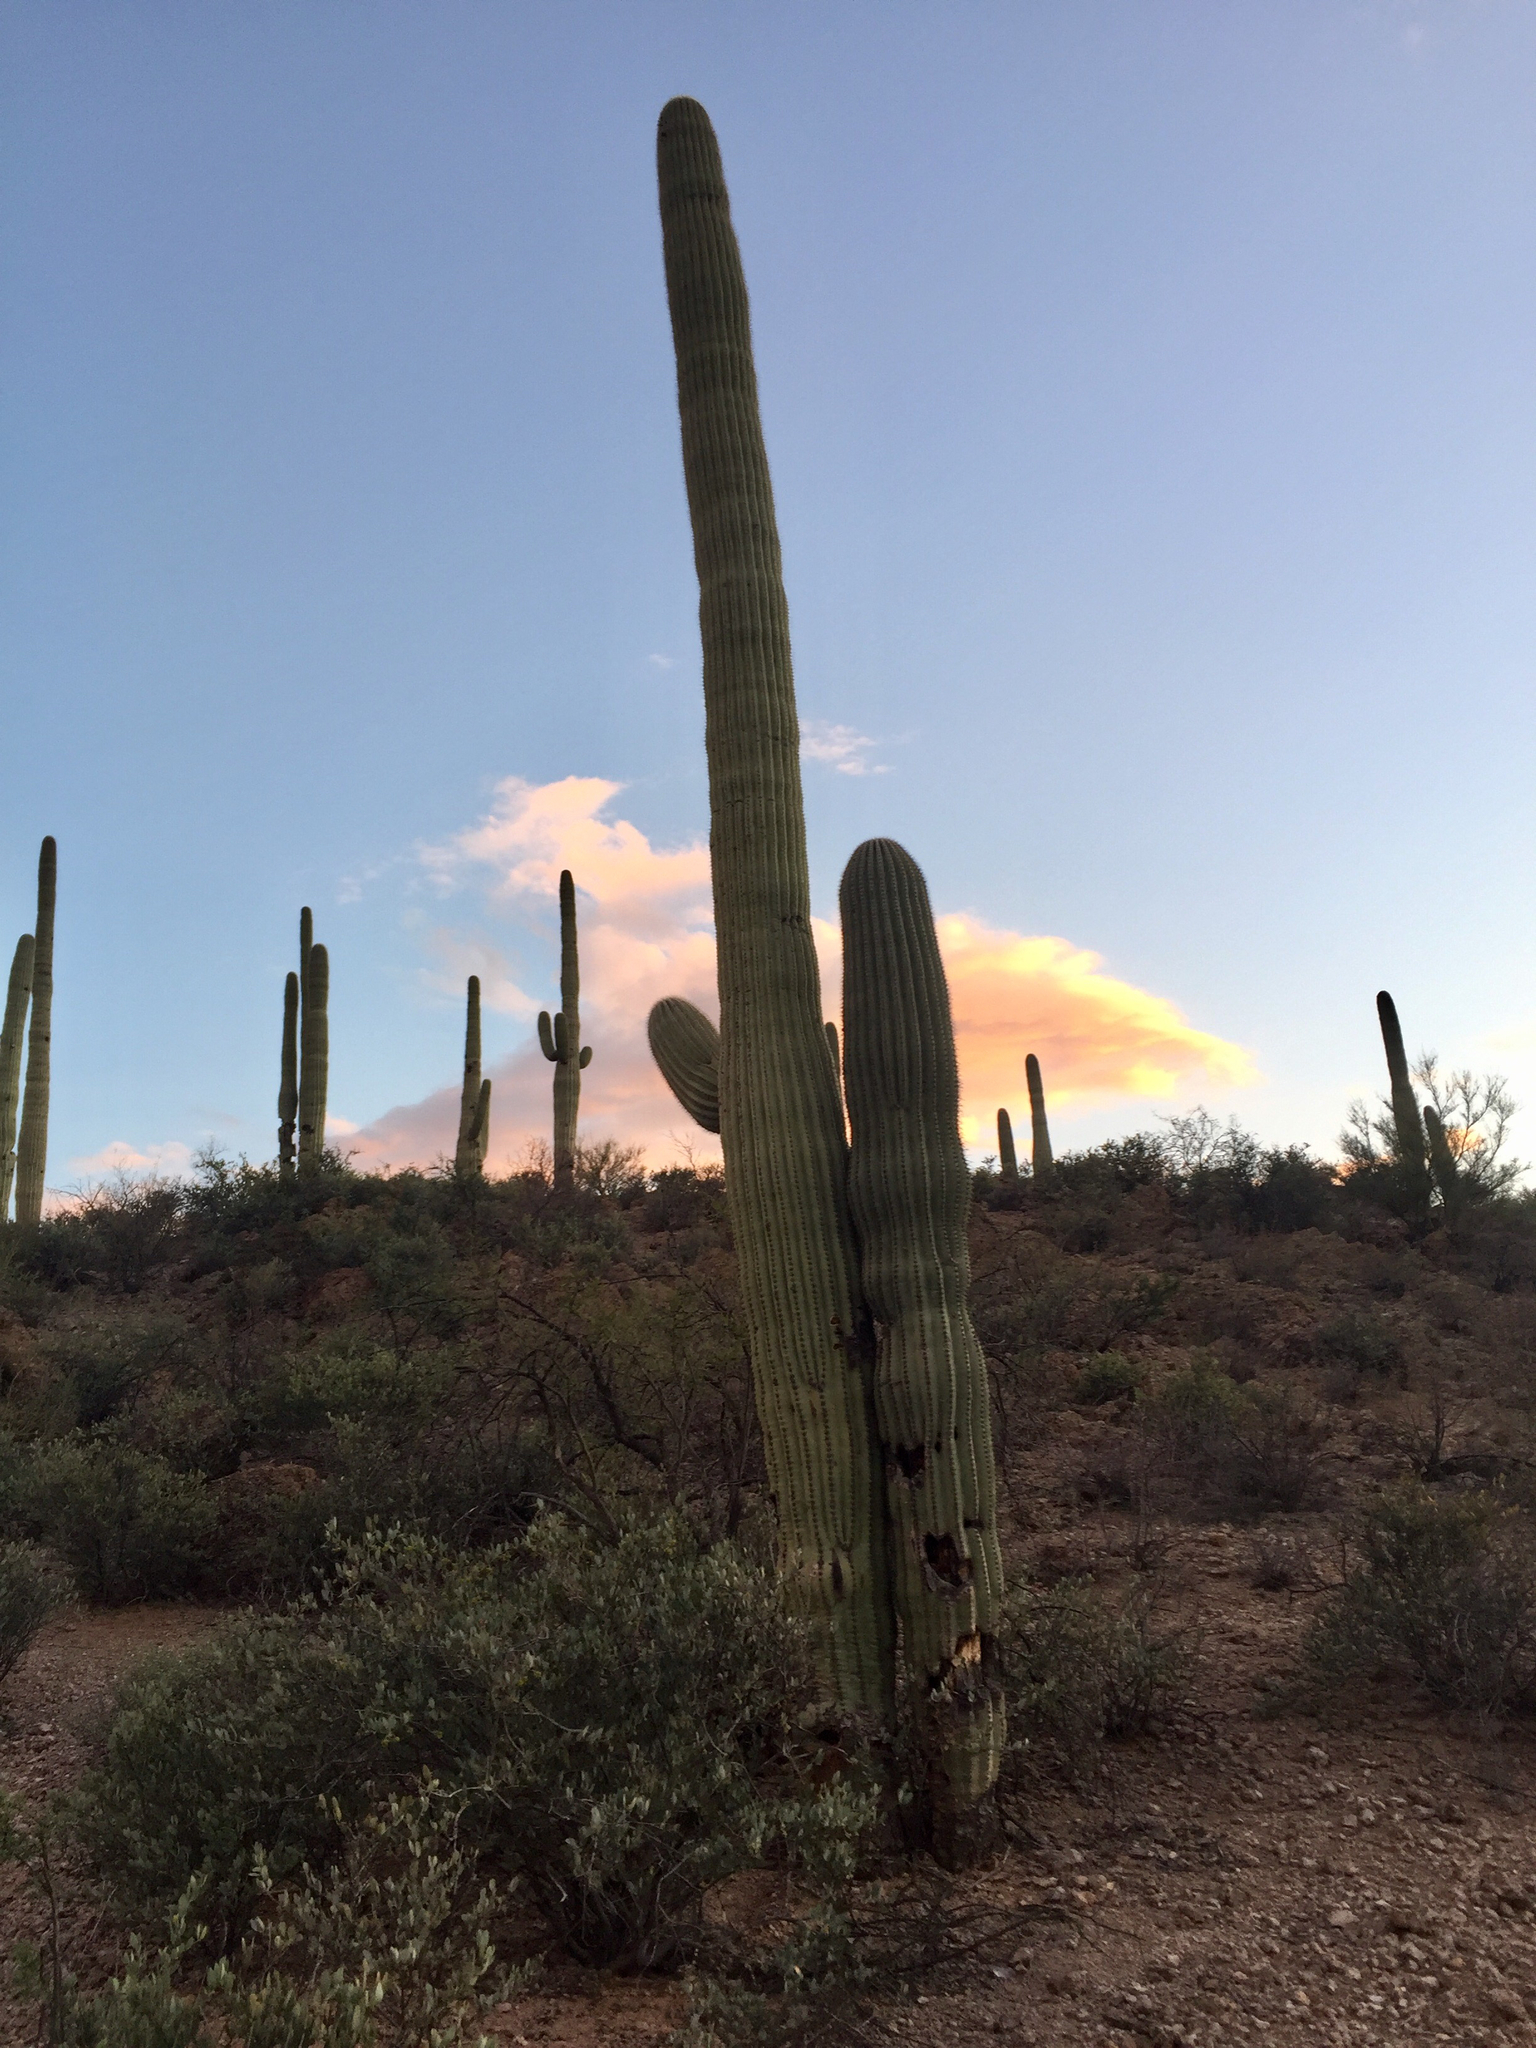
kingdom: Plantae
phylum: Tracheophyta
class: Magnoliopsida
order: Caryophyllales
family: Cactaceae
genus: Carnegiea
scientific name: Carnegiea gigantea
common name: Saguaro
